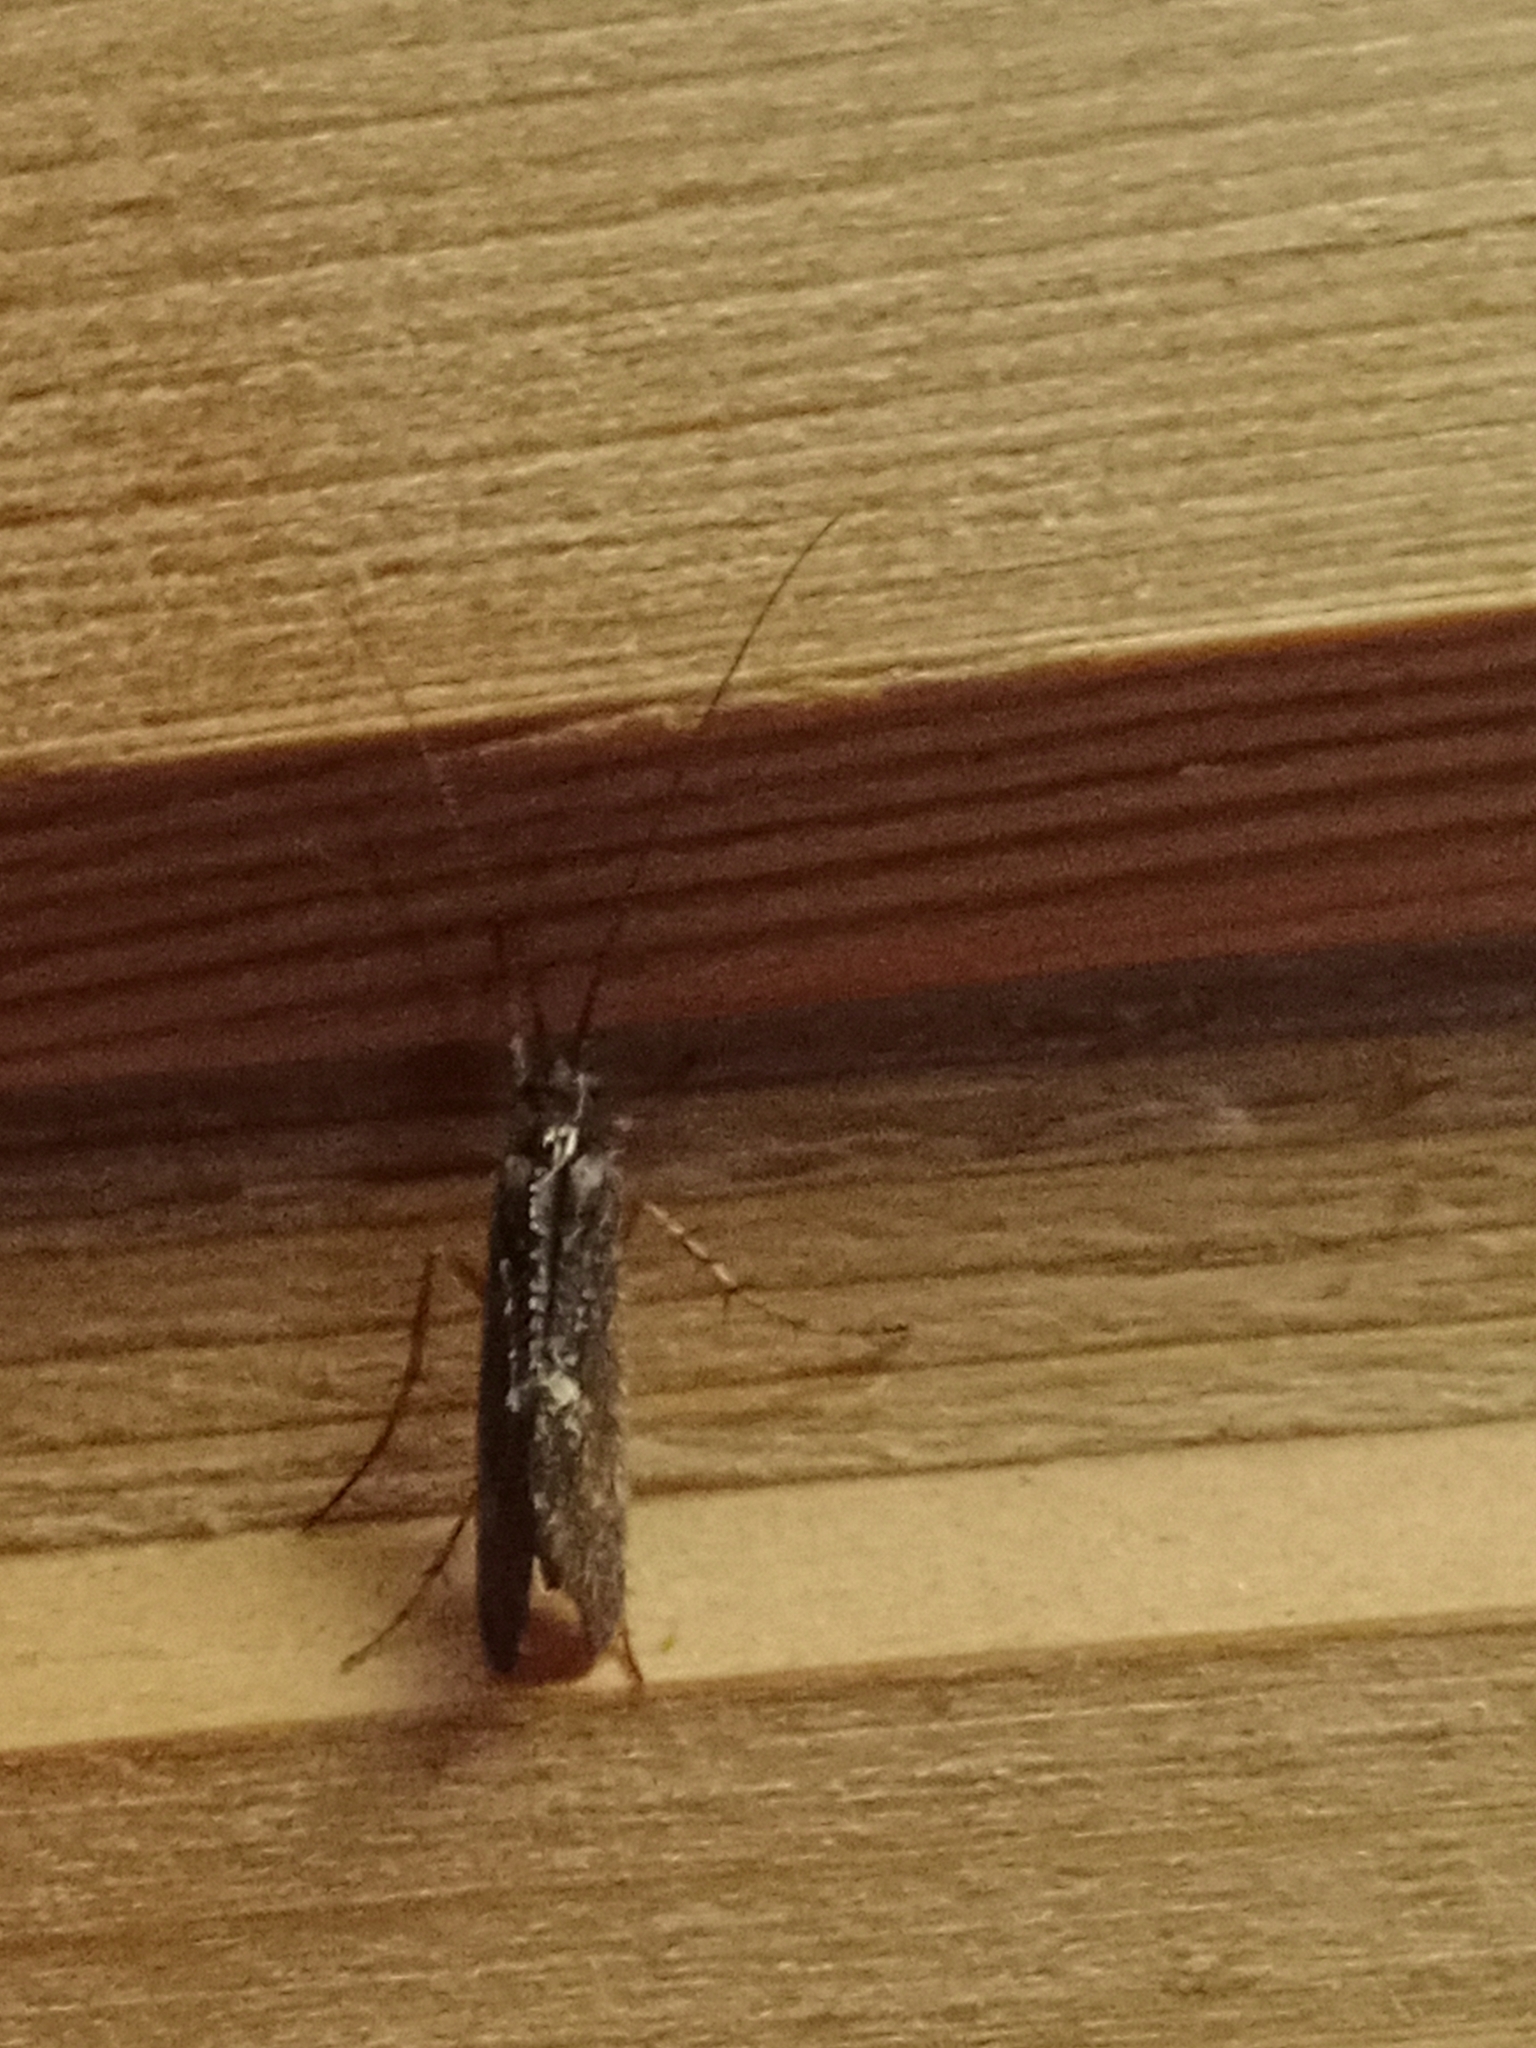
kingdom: Animalia
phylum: Arthropoda
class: Insecta
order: Trichoptera
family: Limnephilidae
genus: Limnephilus
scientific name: Limnephilus sparsus
